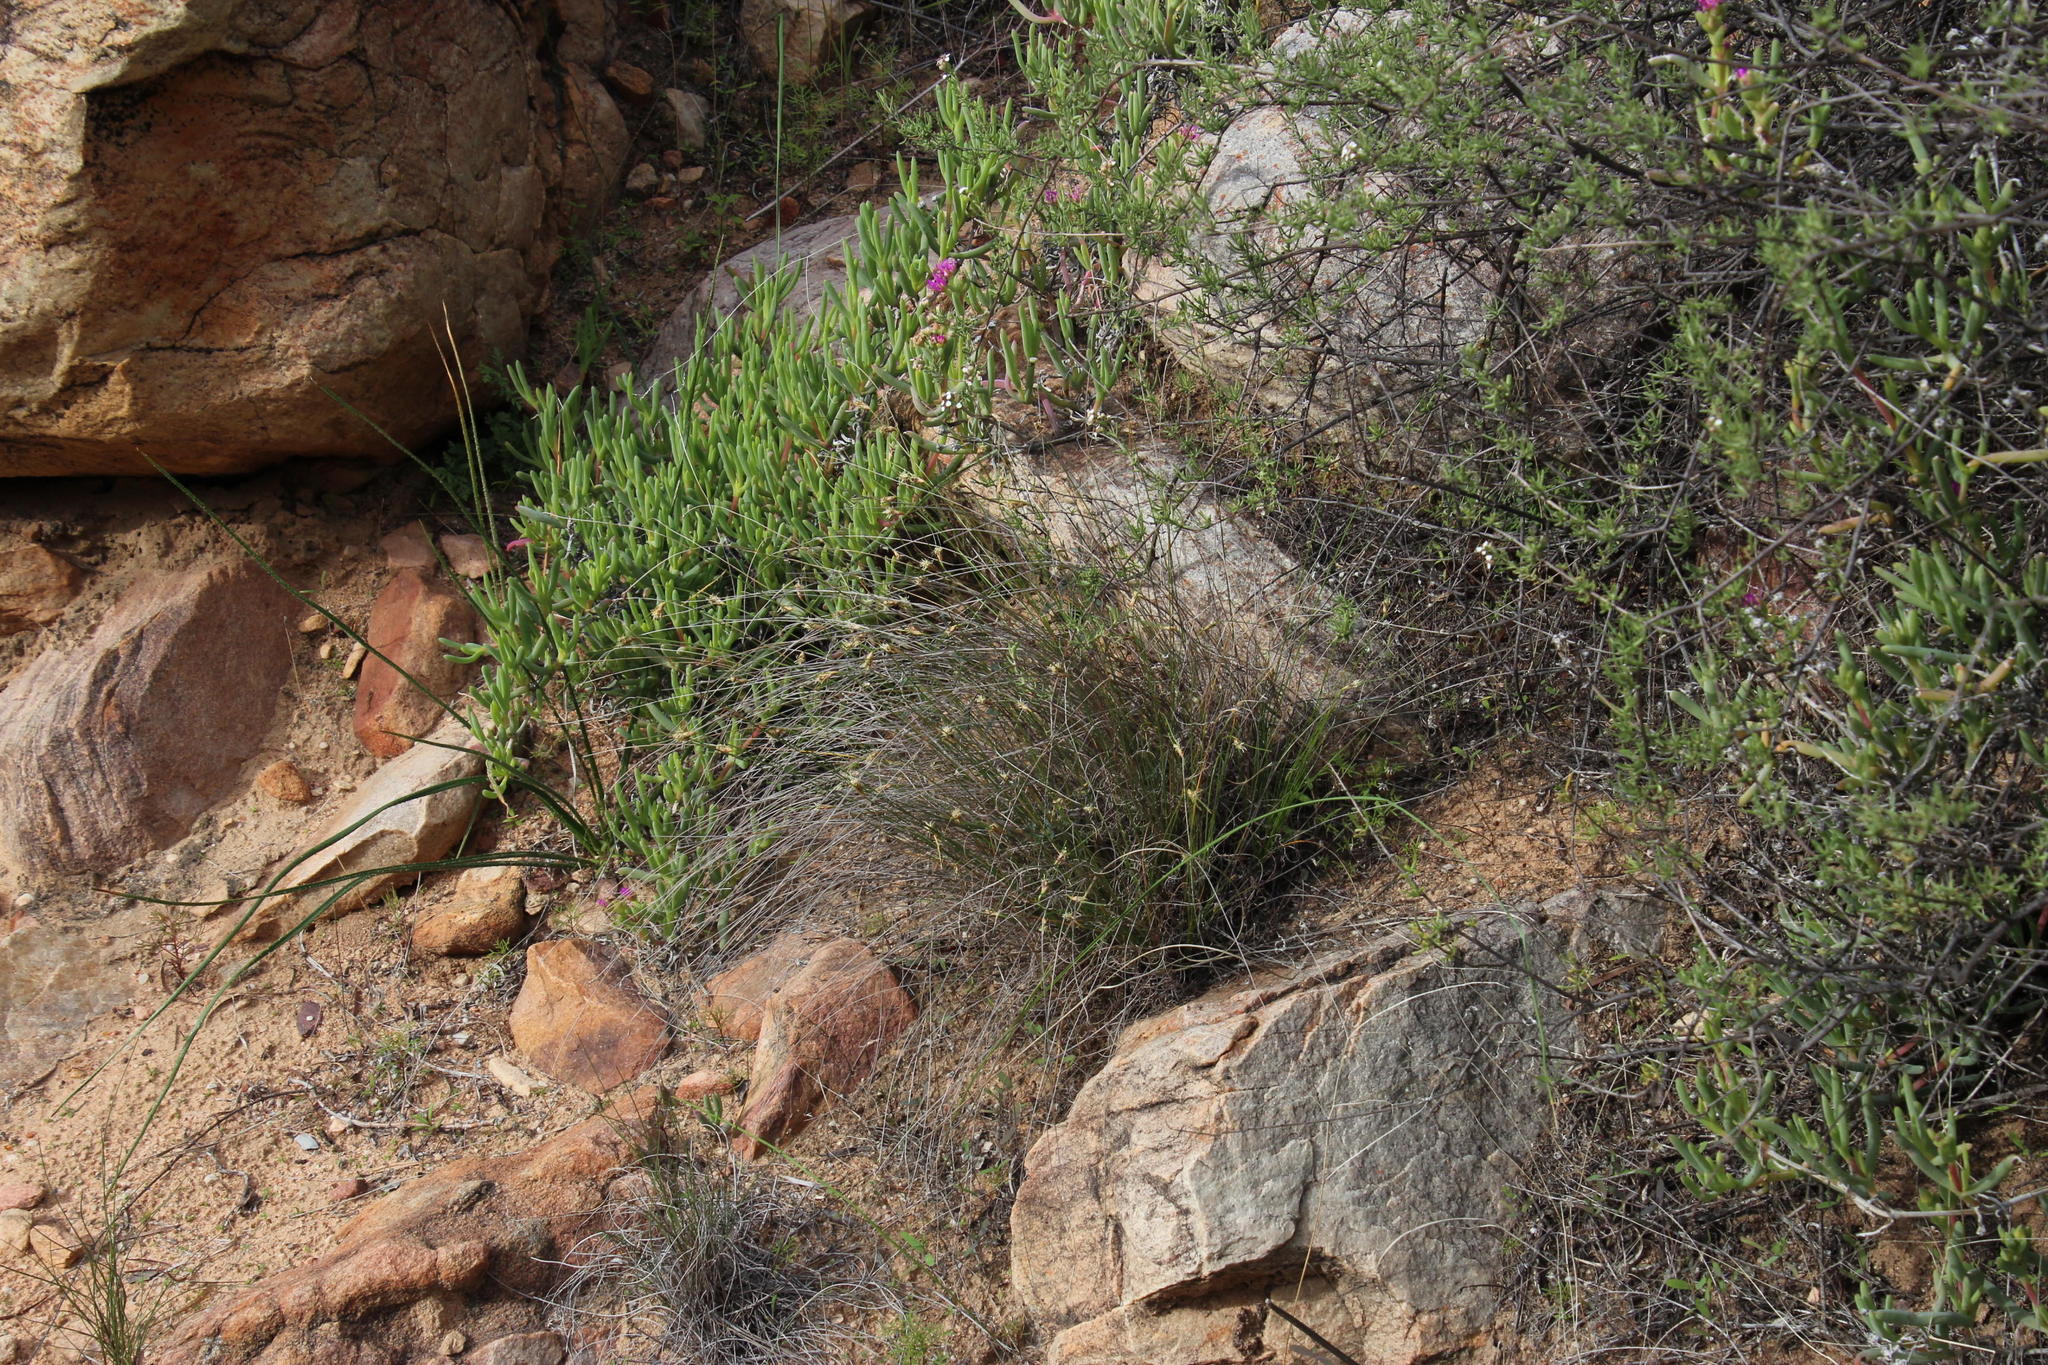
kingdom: Plantae
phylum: Tracheophyta
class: Liliopsida
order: Poales
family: Cyperaceae
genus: Ficinia
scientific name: Ficinia nigrescens
